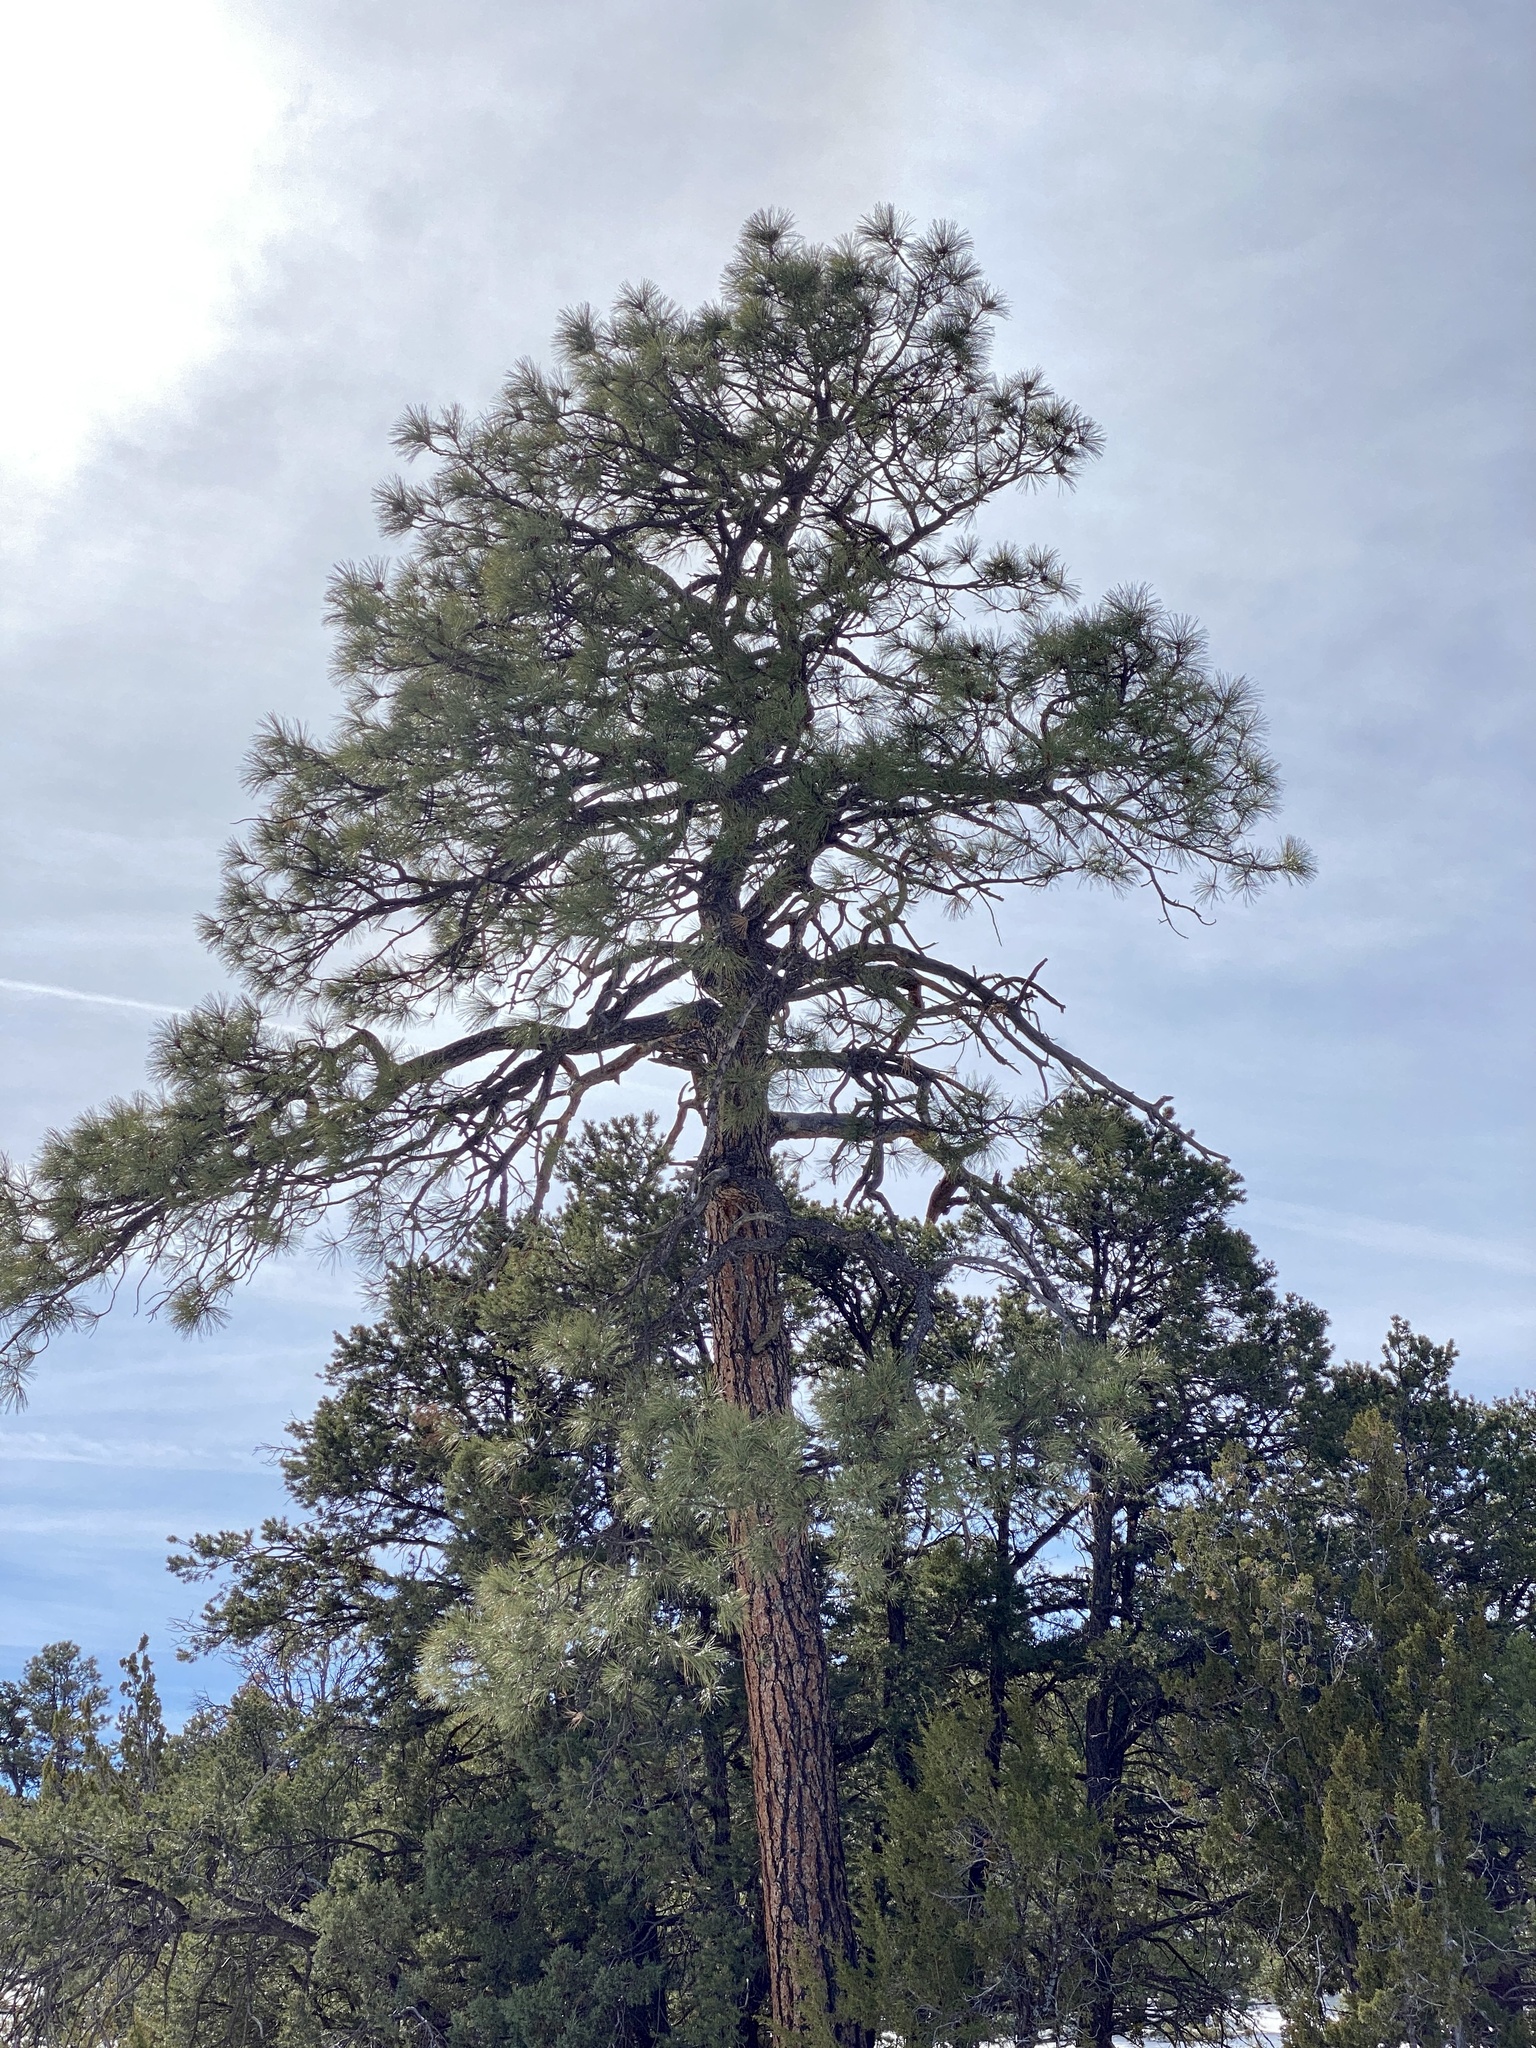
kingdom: Plantae
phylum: Tracheophyta
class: Pinopsida
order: Pinales
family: Pinaceae
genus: Pinus
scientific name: Pinus ponderosa
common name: Western yellow-pine
